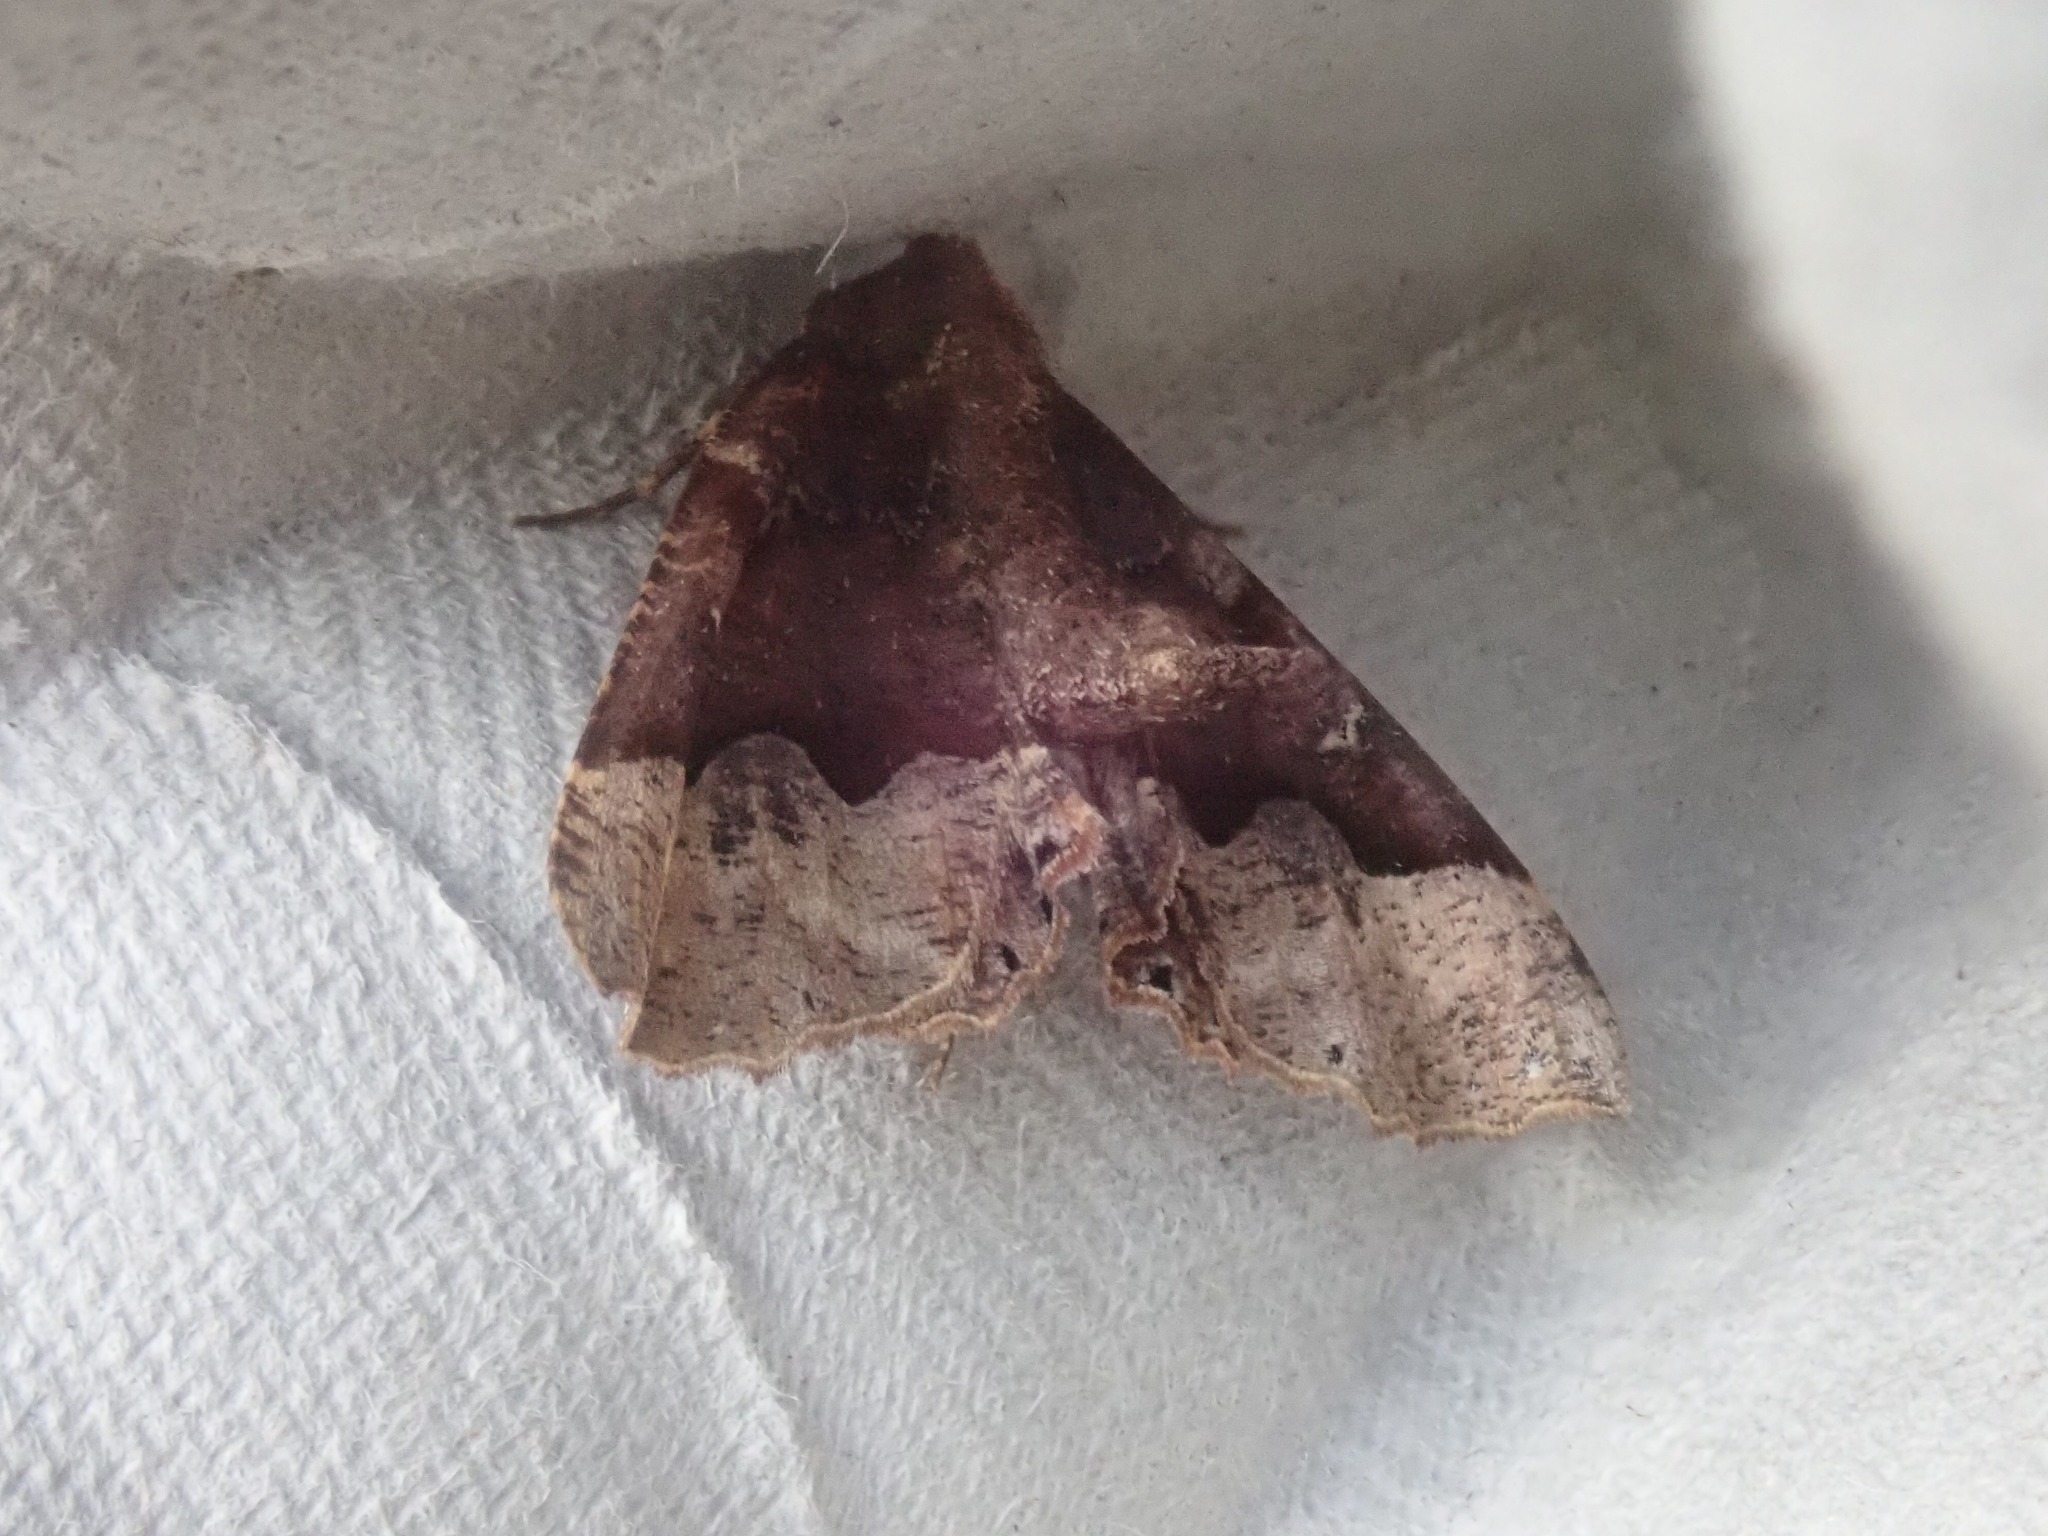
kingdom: Animalia
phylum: Arthropoda
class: Insecta
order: Lepidoptera
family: Geometridae
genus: Pero
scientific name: Pero morrisonaria
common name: Morrison's pero
